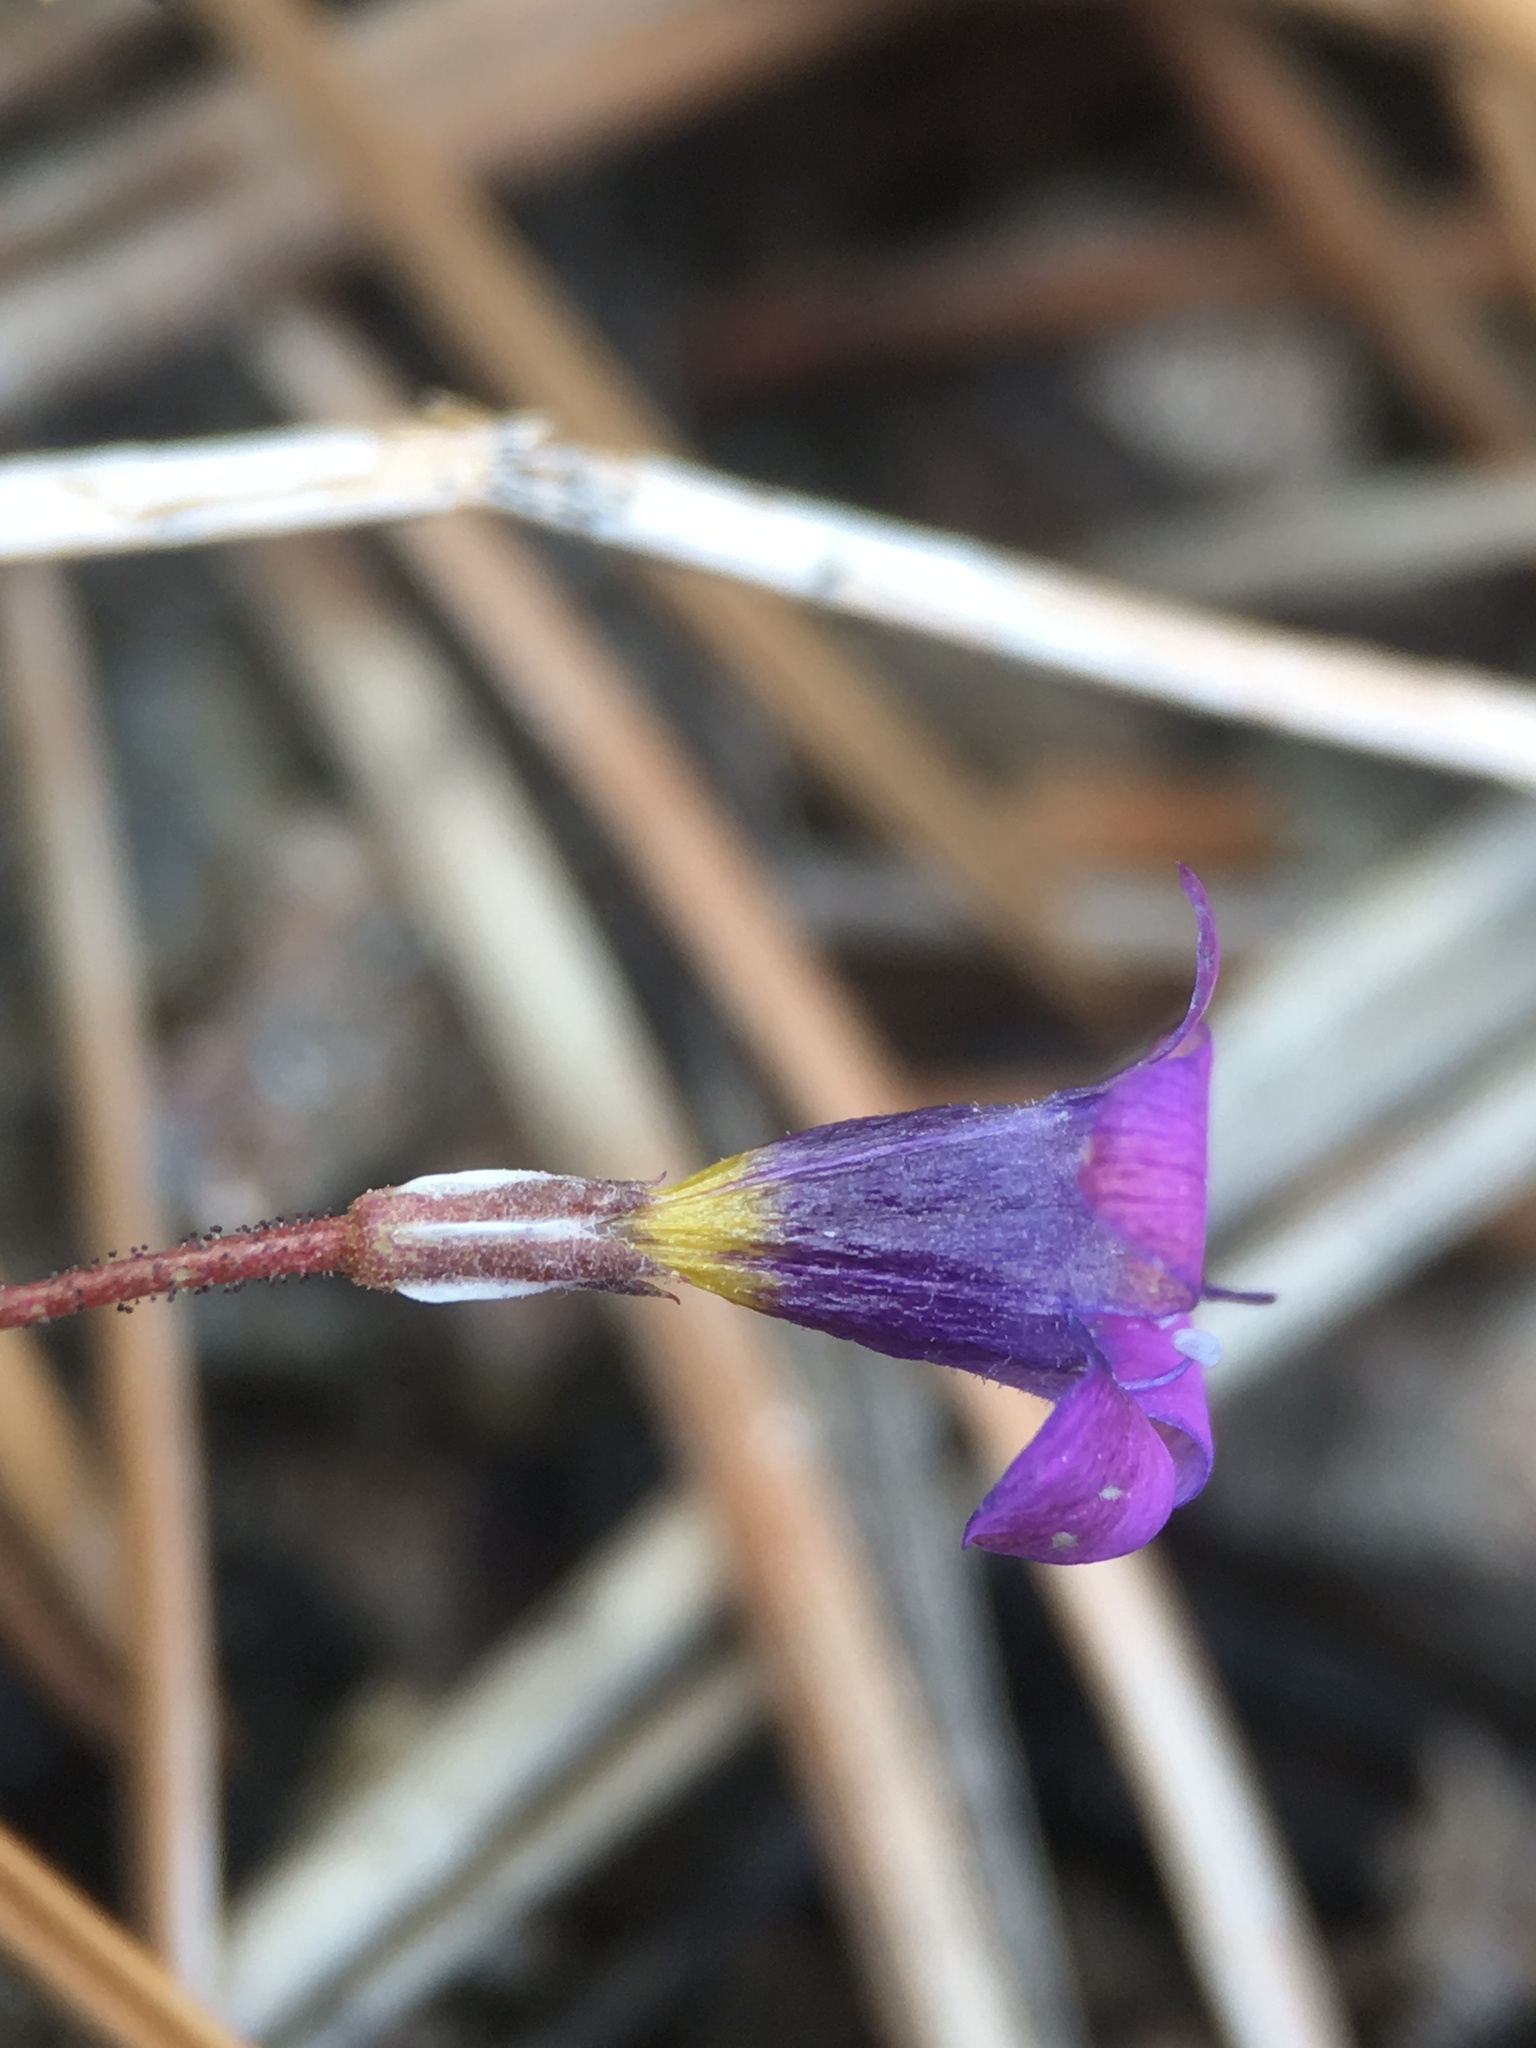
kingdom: Plantae
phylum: Tracheophyta
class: Magnoliopsida
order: Ericales
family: Polemoniaceae
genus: Gilia
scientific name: Gilia ochroleuca
